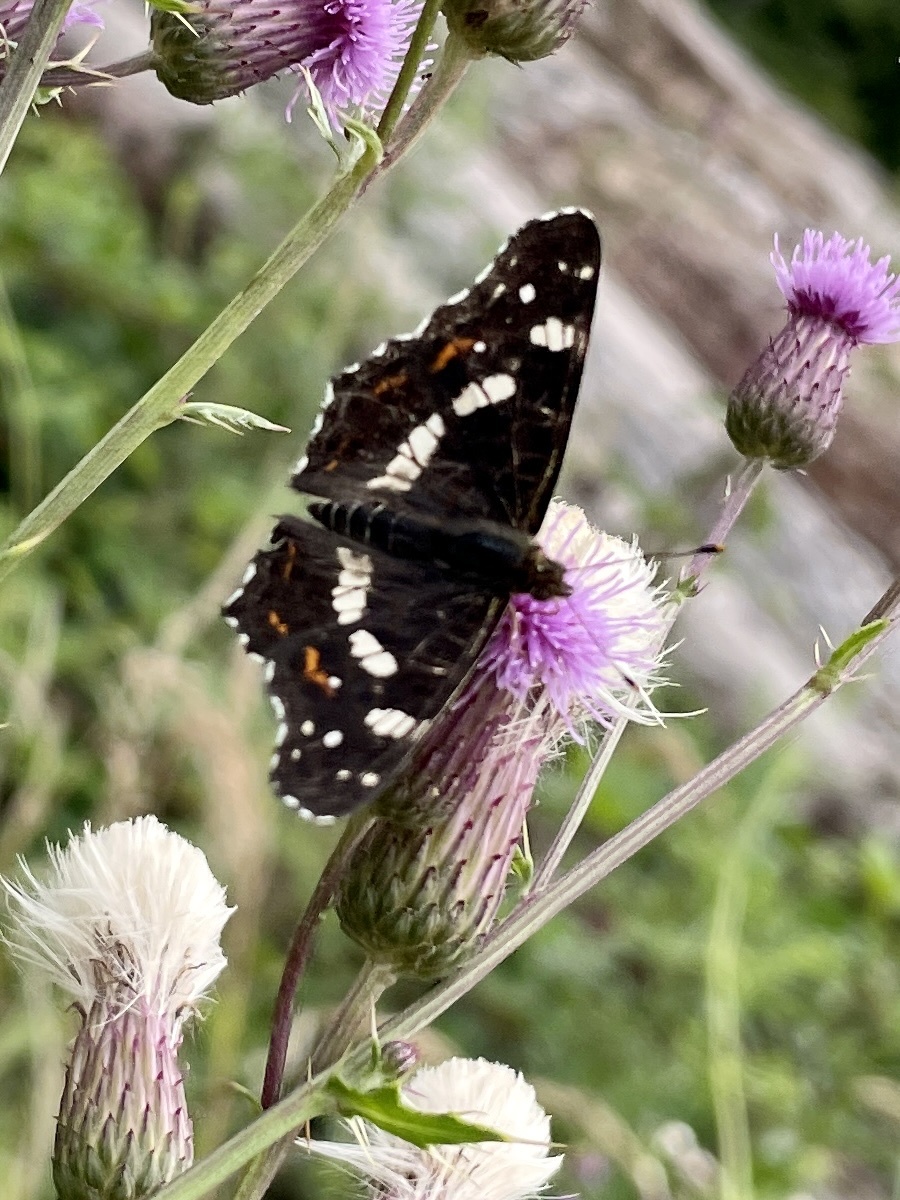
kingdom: Animalia
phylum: Arthropoda
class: Insecta
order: Lepidoptera
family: Nymphalidae
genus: Araschnia
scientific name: Araschnia levana
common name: Map butterfly
